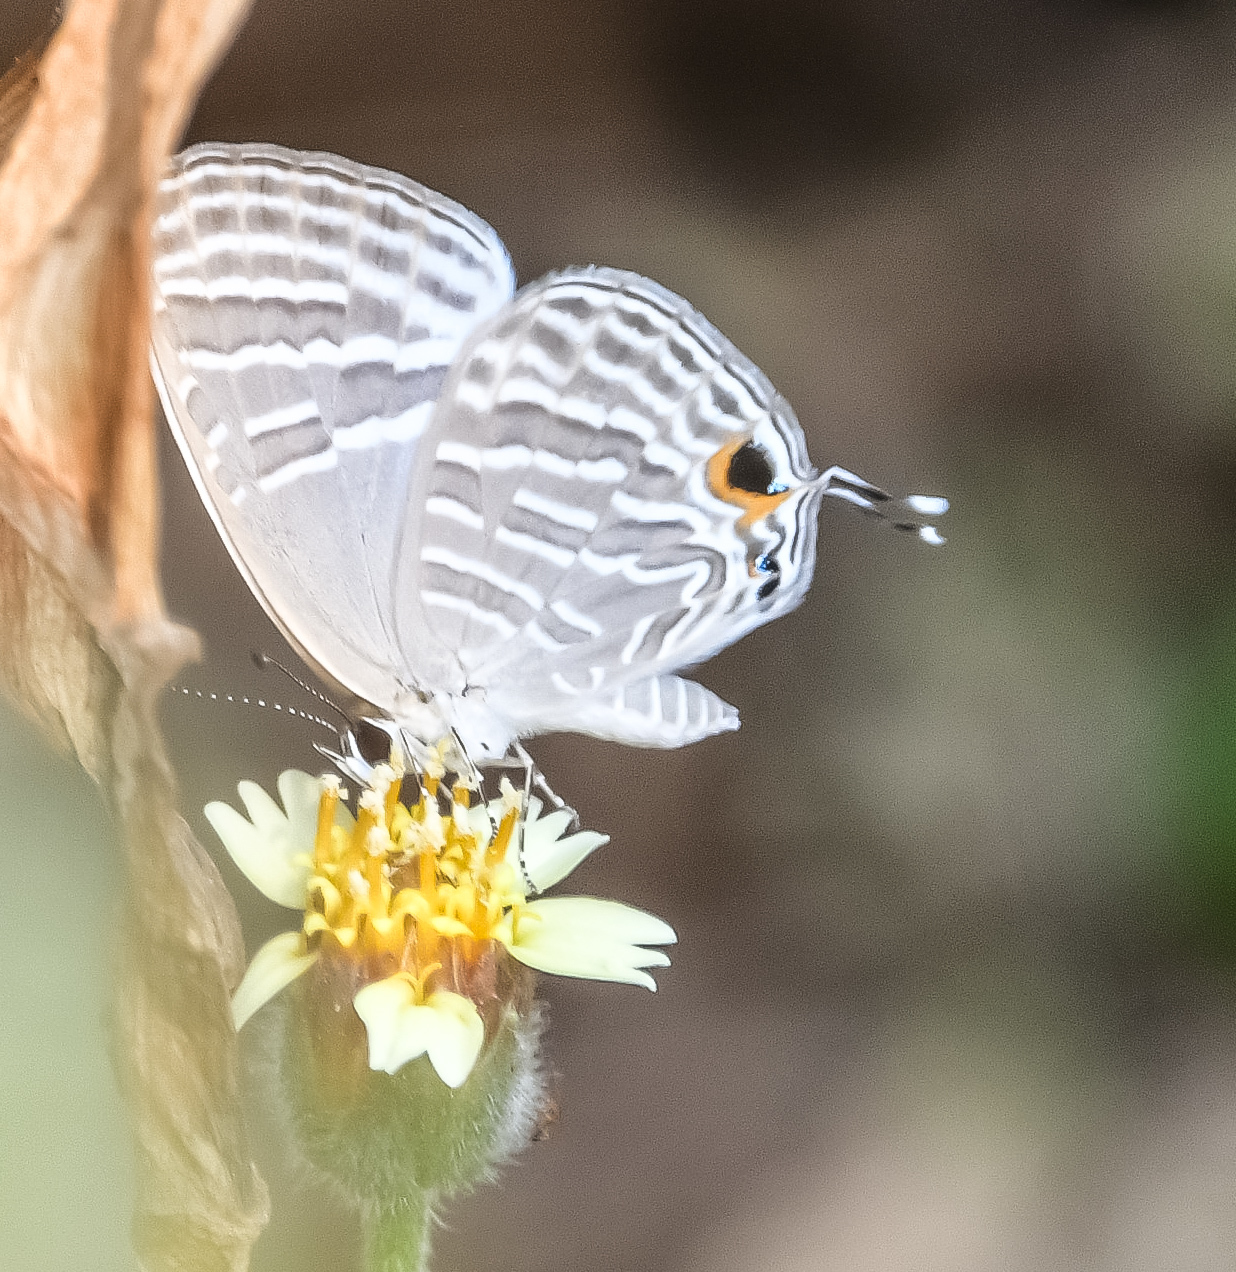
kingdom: Animalia
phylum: Arthropoda
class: Insecta
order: Lepidoptera
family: Lycaenidae
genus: Jamides
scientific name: Jamides celeno
